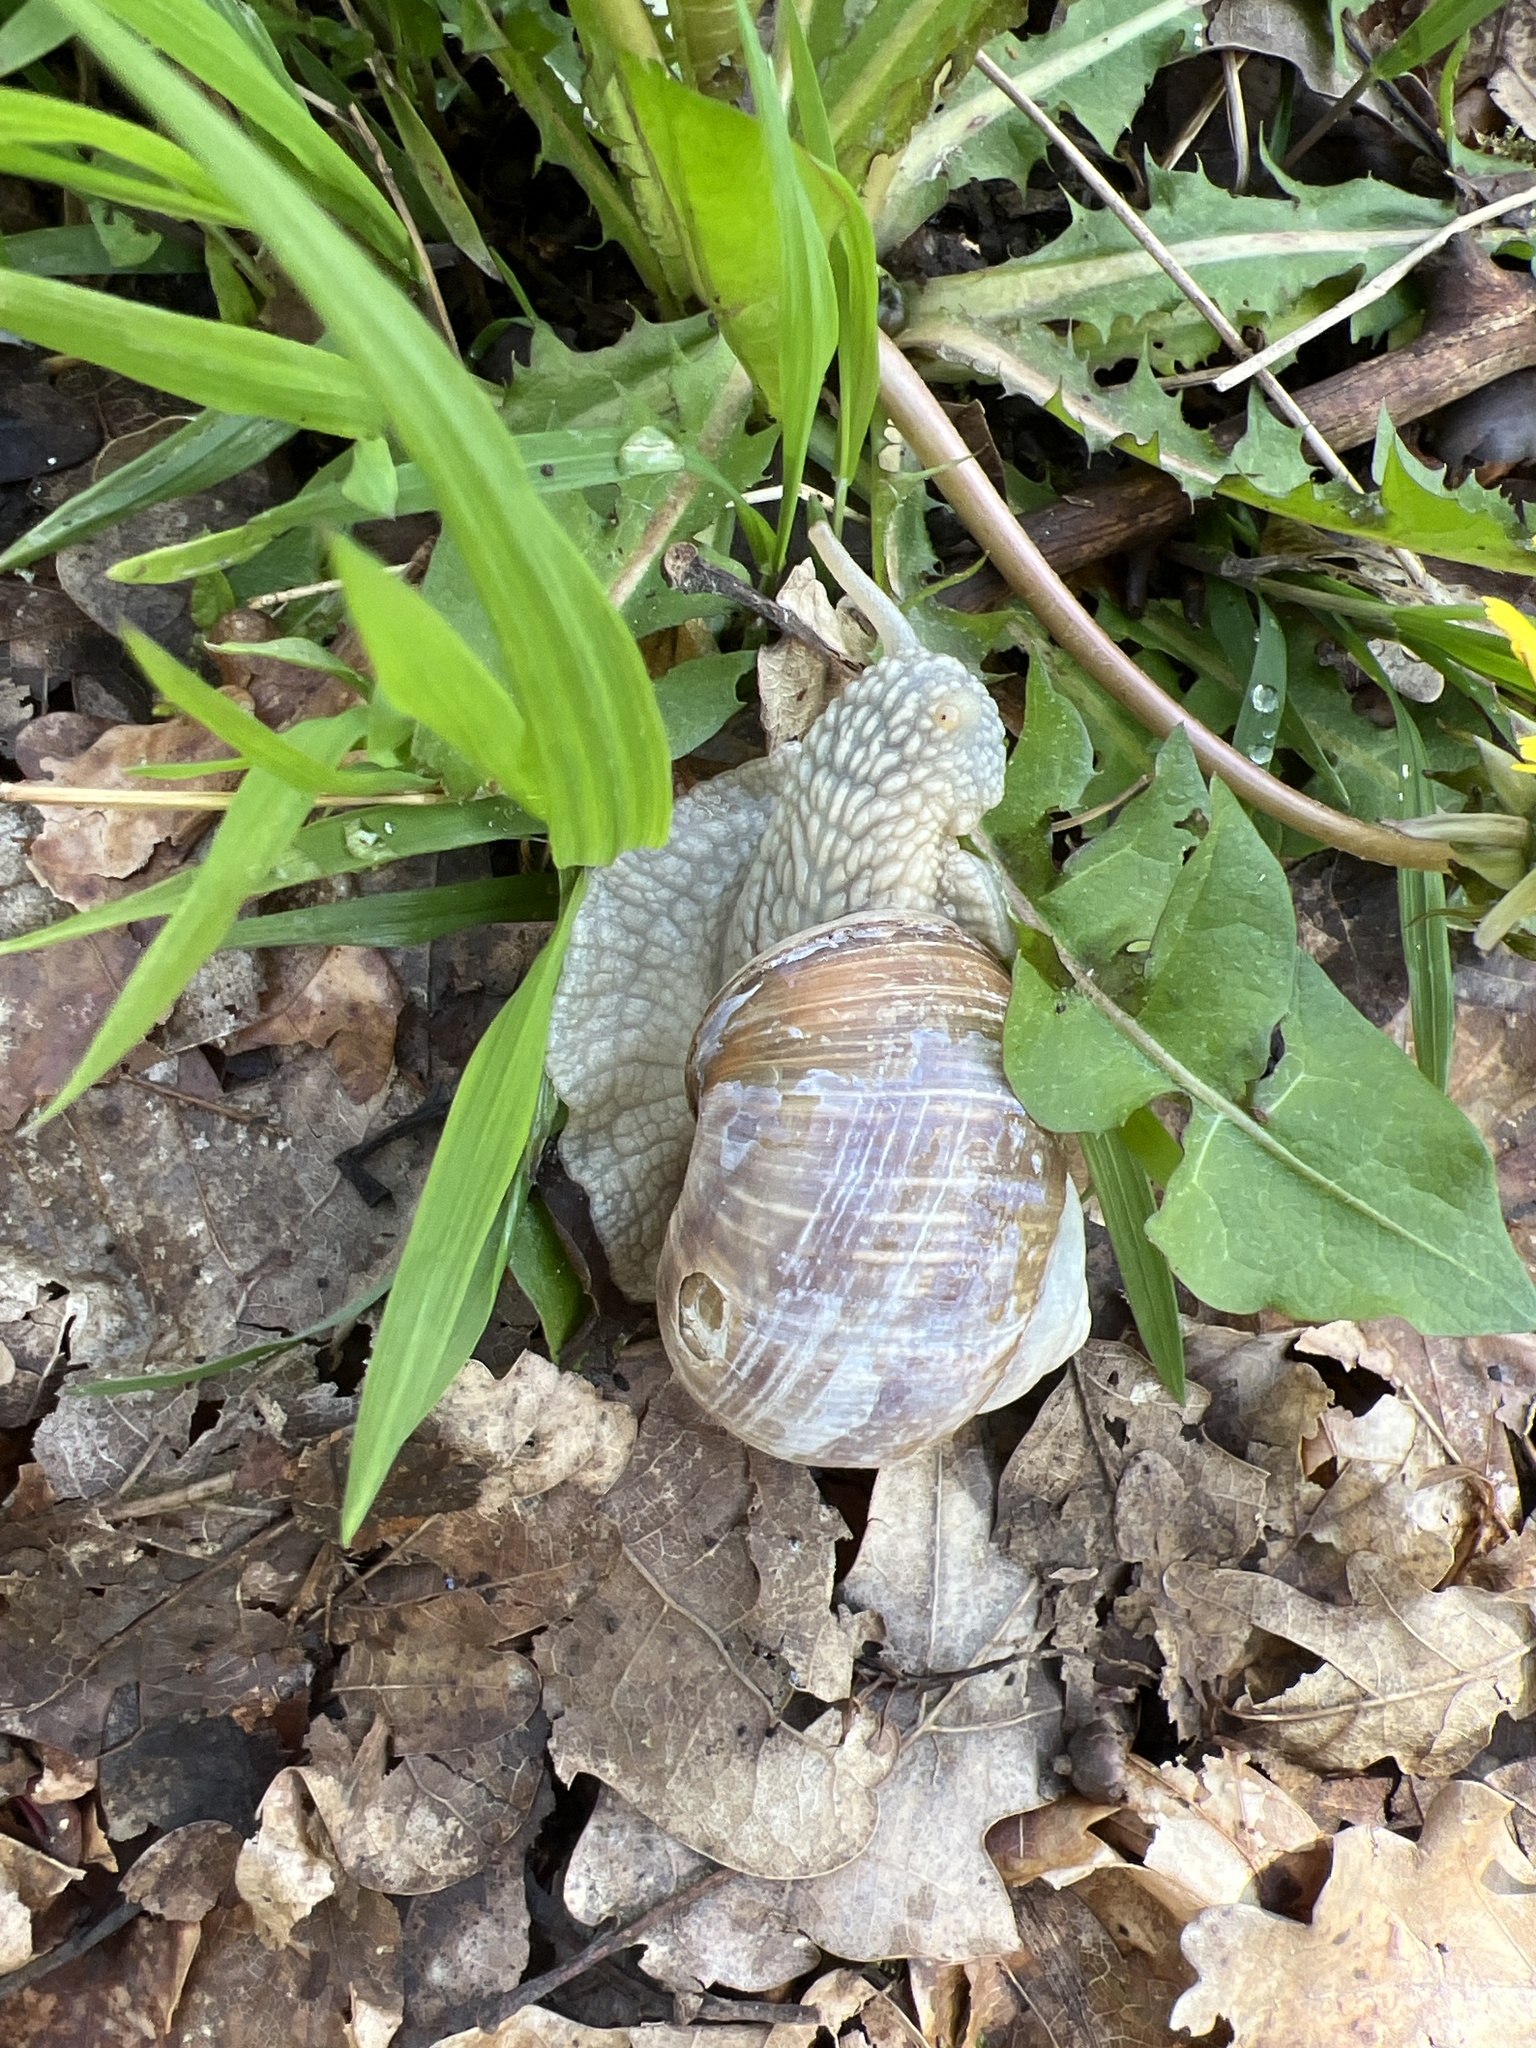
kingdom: Animalia
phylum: Mollusca
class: Gastropoda
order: Stylommatophora
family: Helicidae
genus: Helix
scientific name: Helix pomatia
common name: Roman snail
